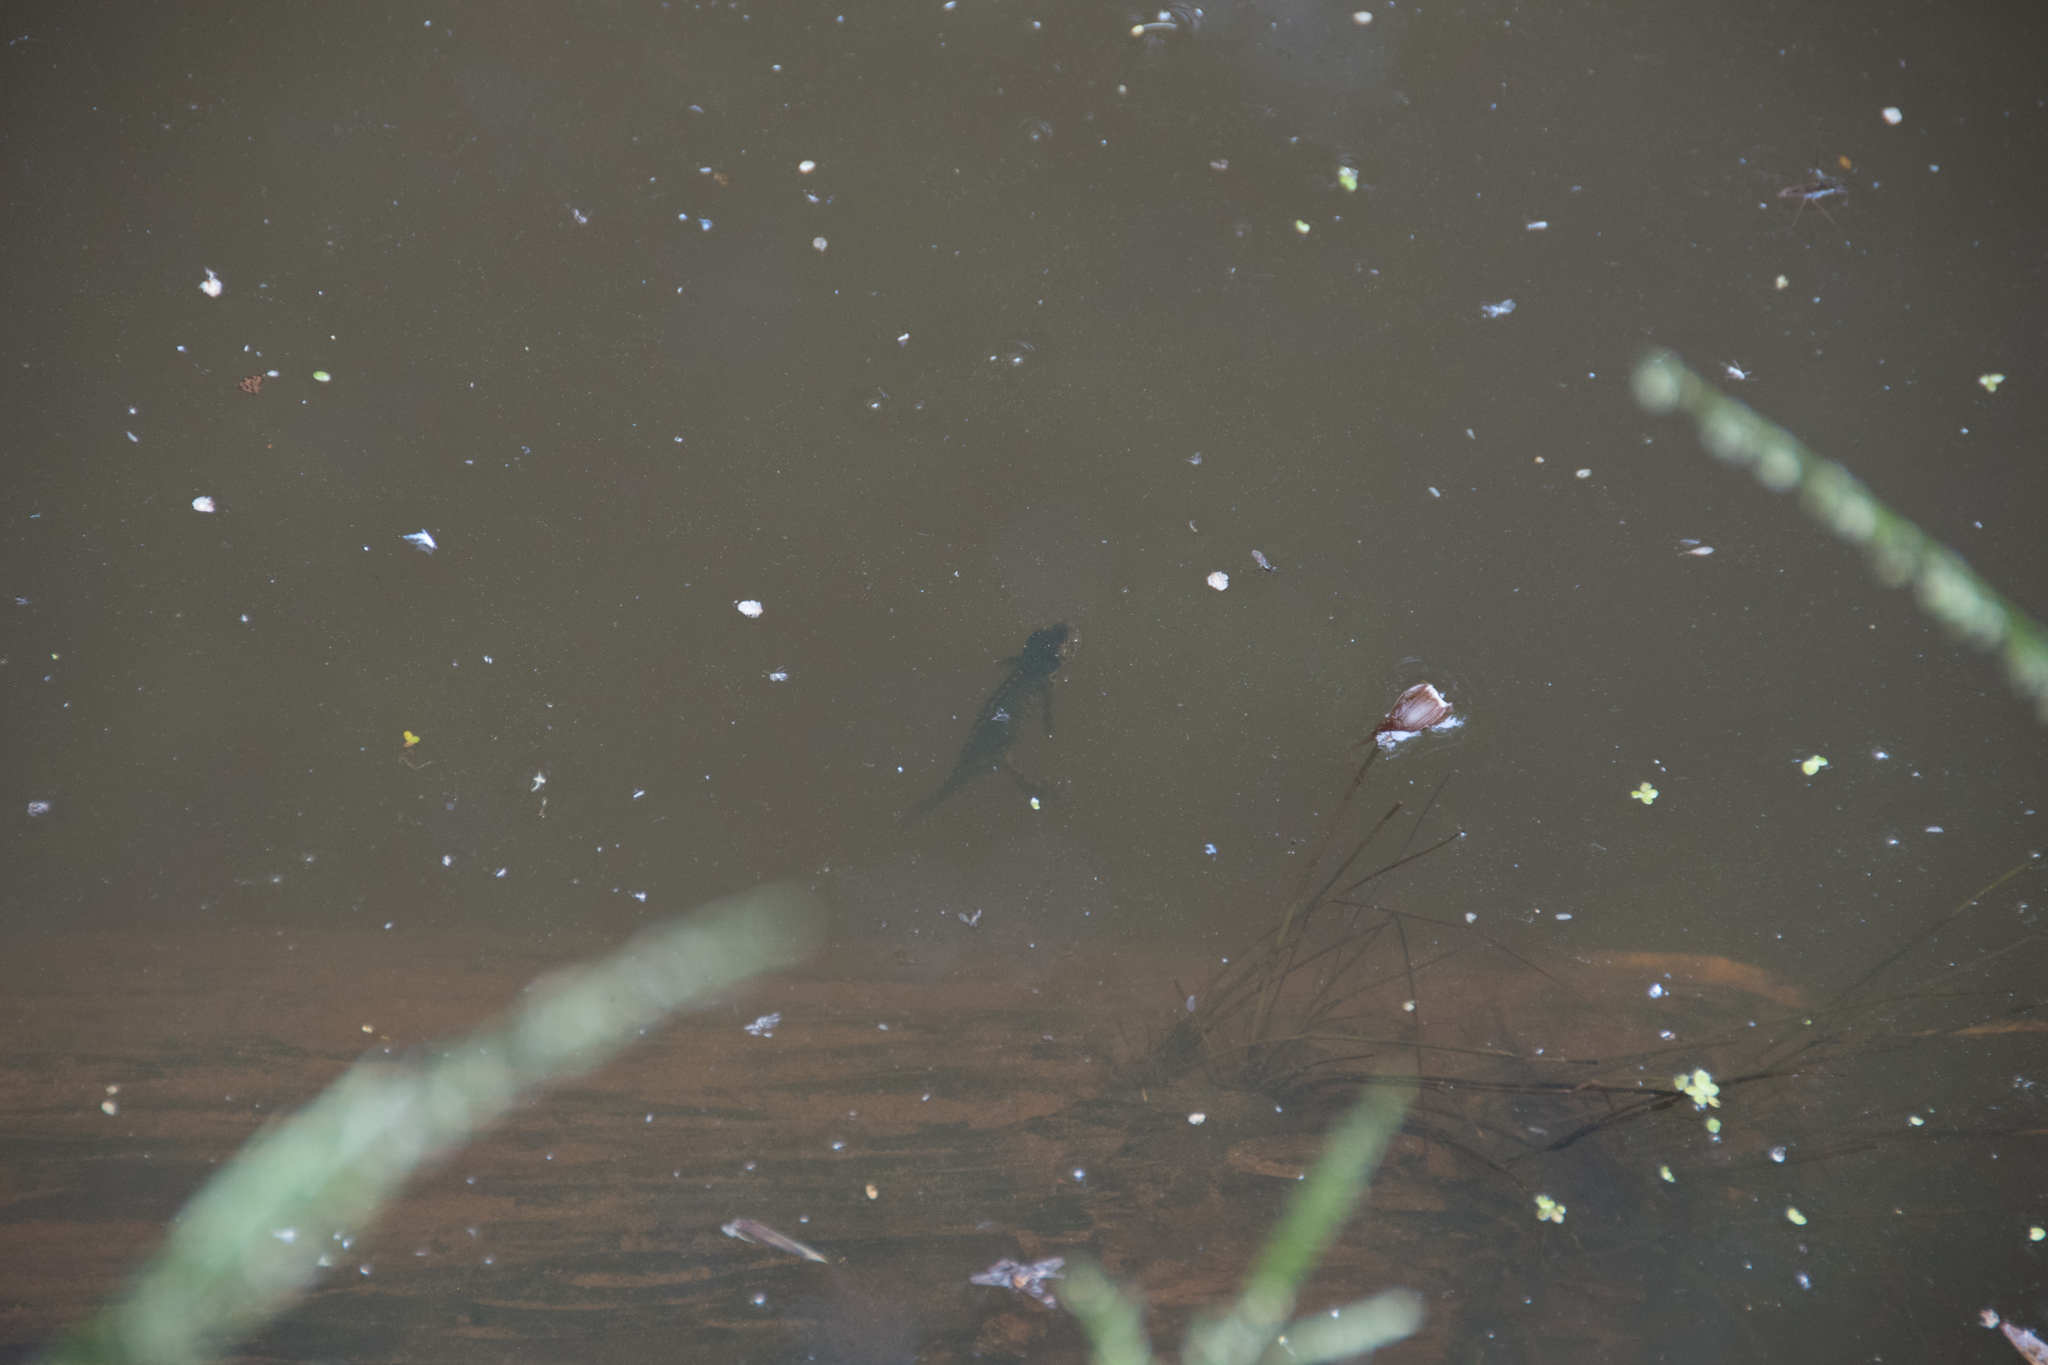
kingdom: Animalia
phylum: Chordata
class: Amphibia
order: Caudata
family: Salamandridae
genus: Ichthyosaura
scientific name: Ichthyosaura alpestris
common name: Alpine newt
